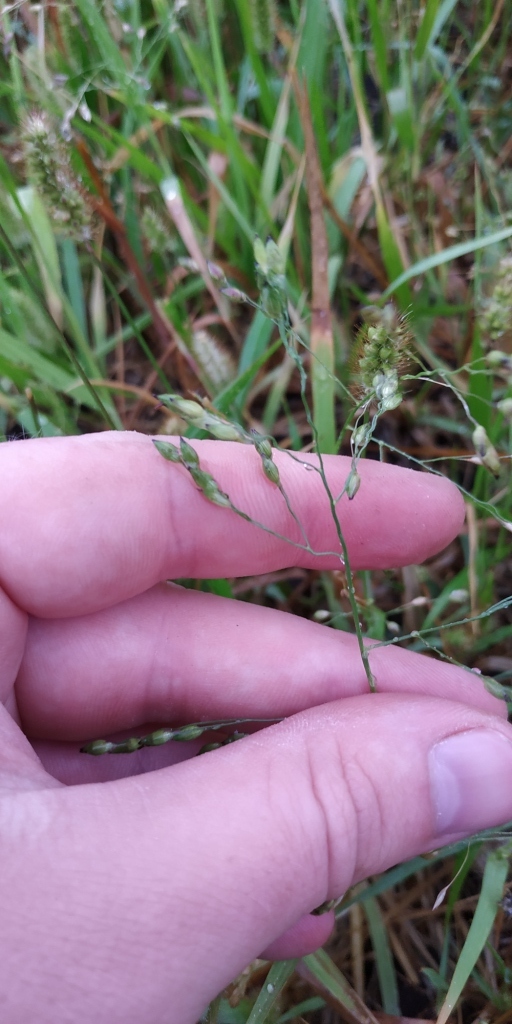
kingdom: Plantae
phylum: Tracheophyta
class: Liliopsida
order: Poales
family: Poaceae
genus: Panicum
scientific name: Panicum miliaceum
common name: Common millet
